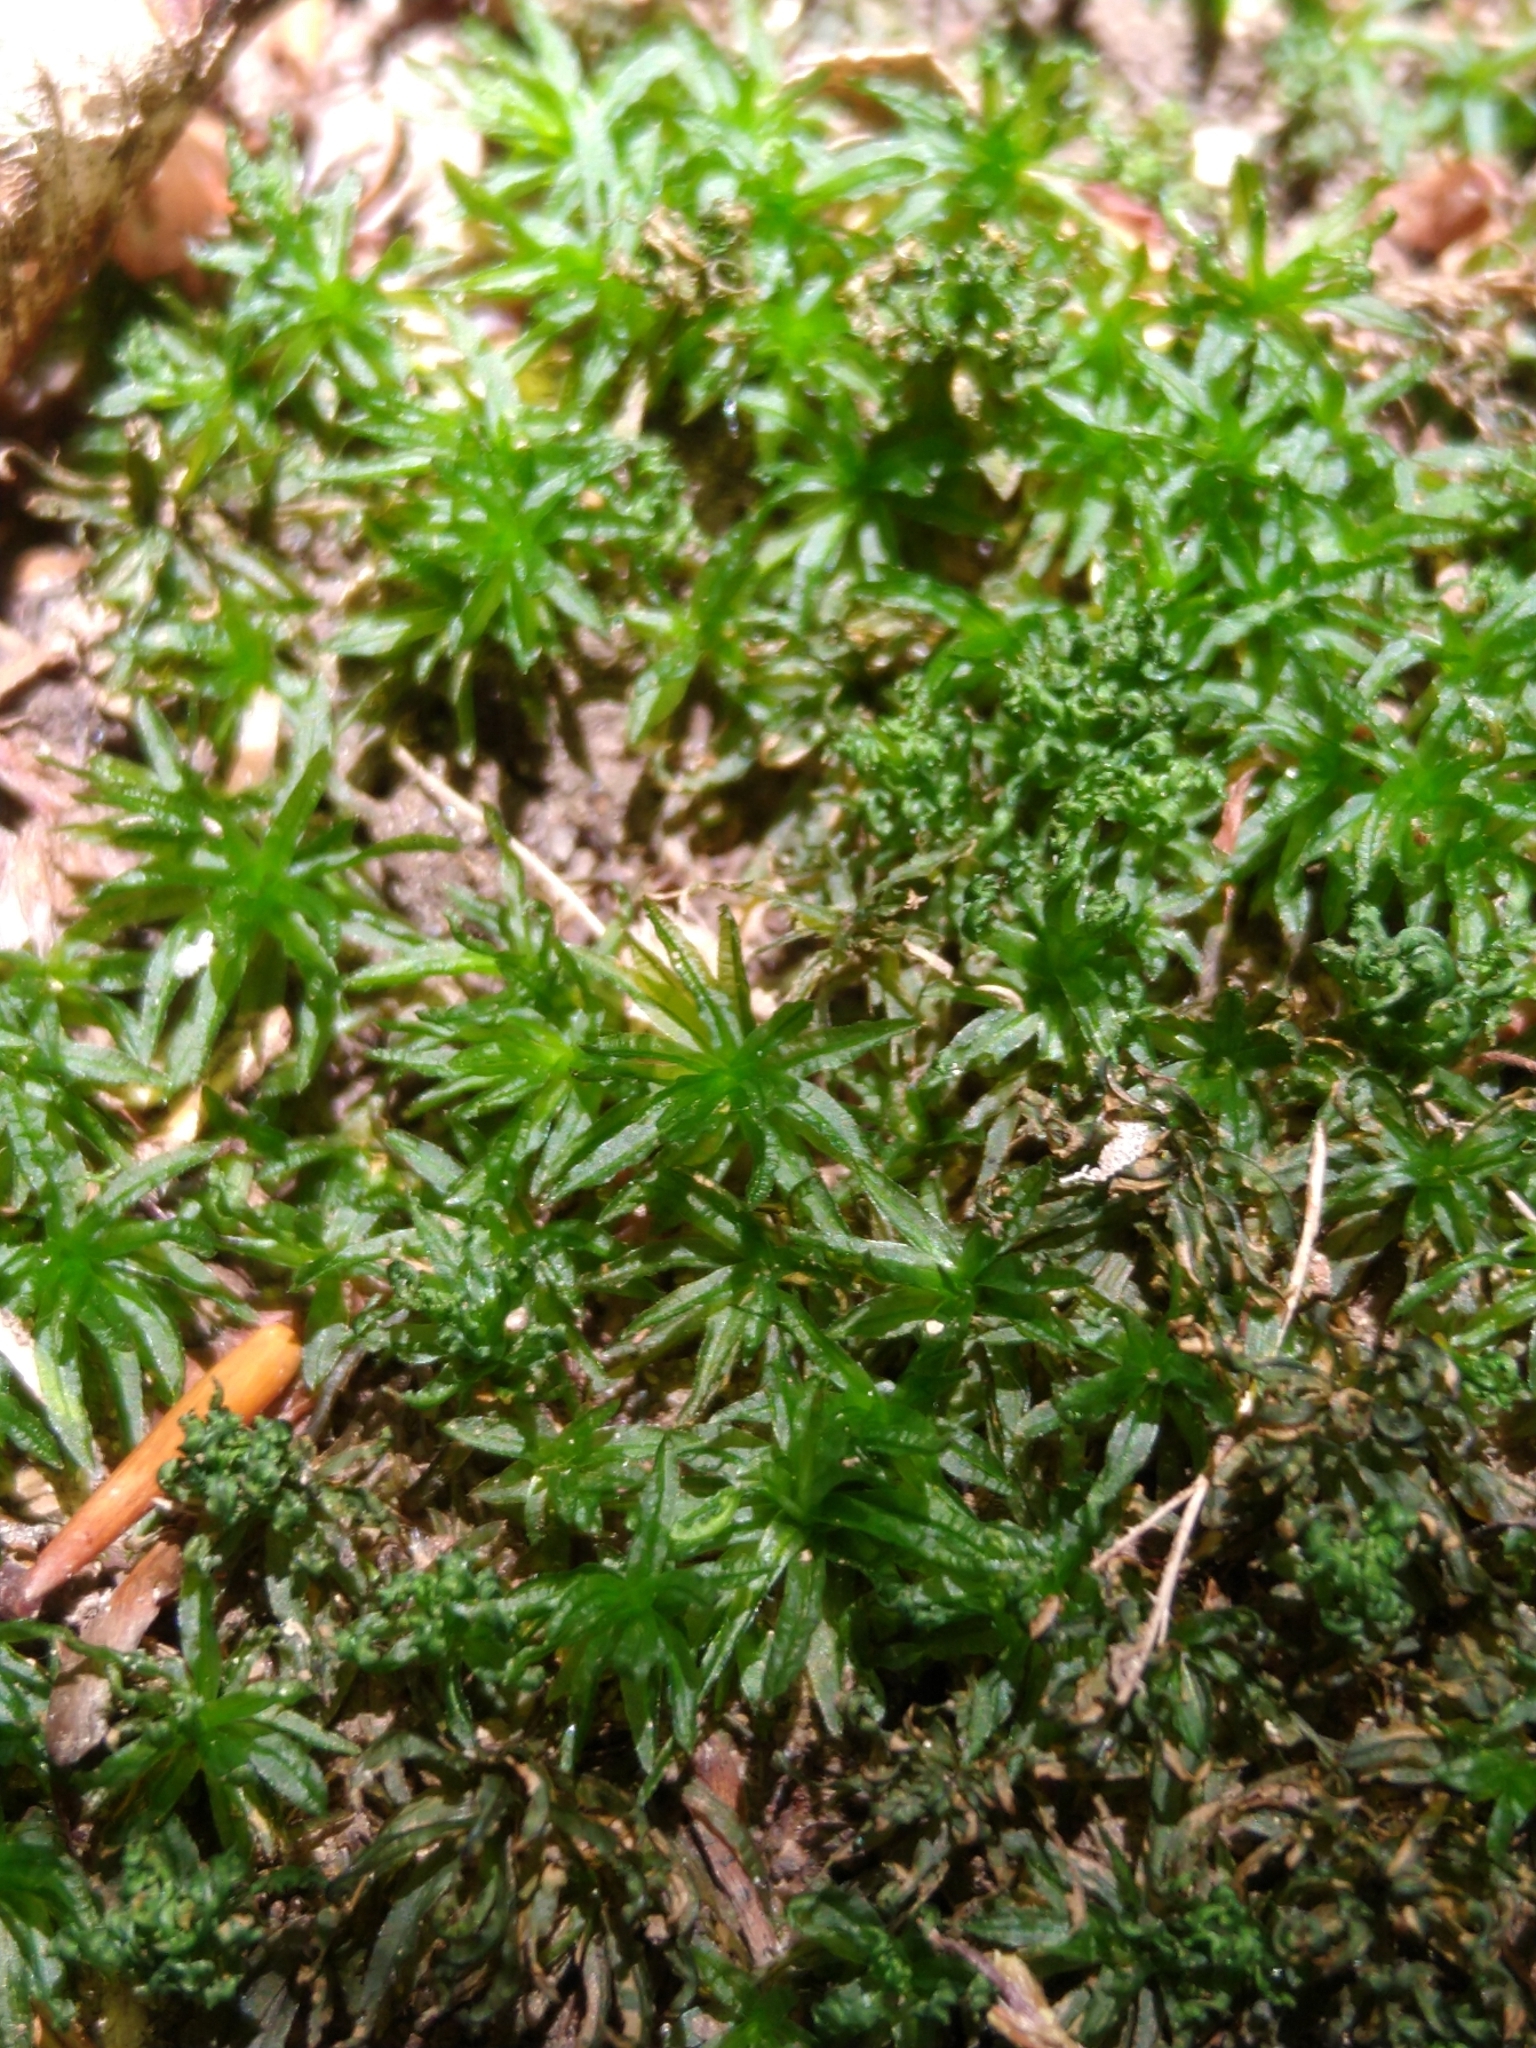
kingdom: Plantae
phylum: Bryophyta
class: Polytrichopsida
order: Polytrichales
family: Polytrichaceae
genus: Atrichum
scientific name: Atrichum undulatum
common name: Common smoothcap
